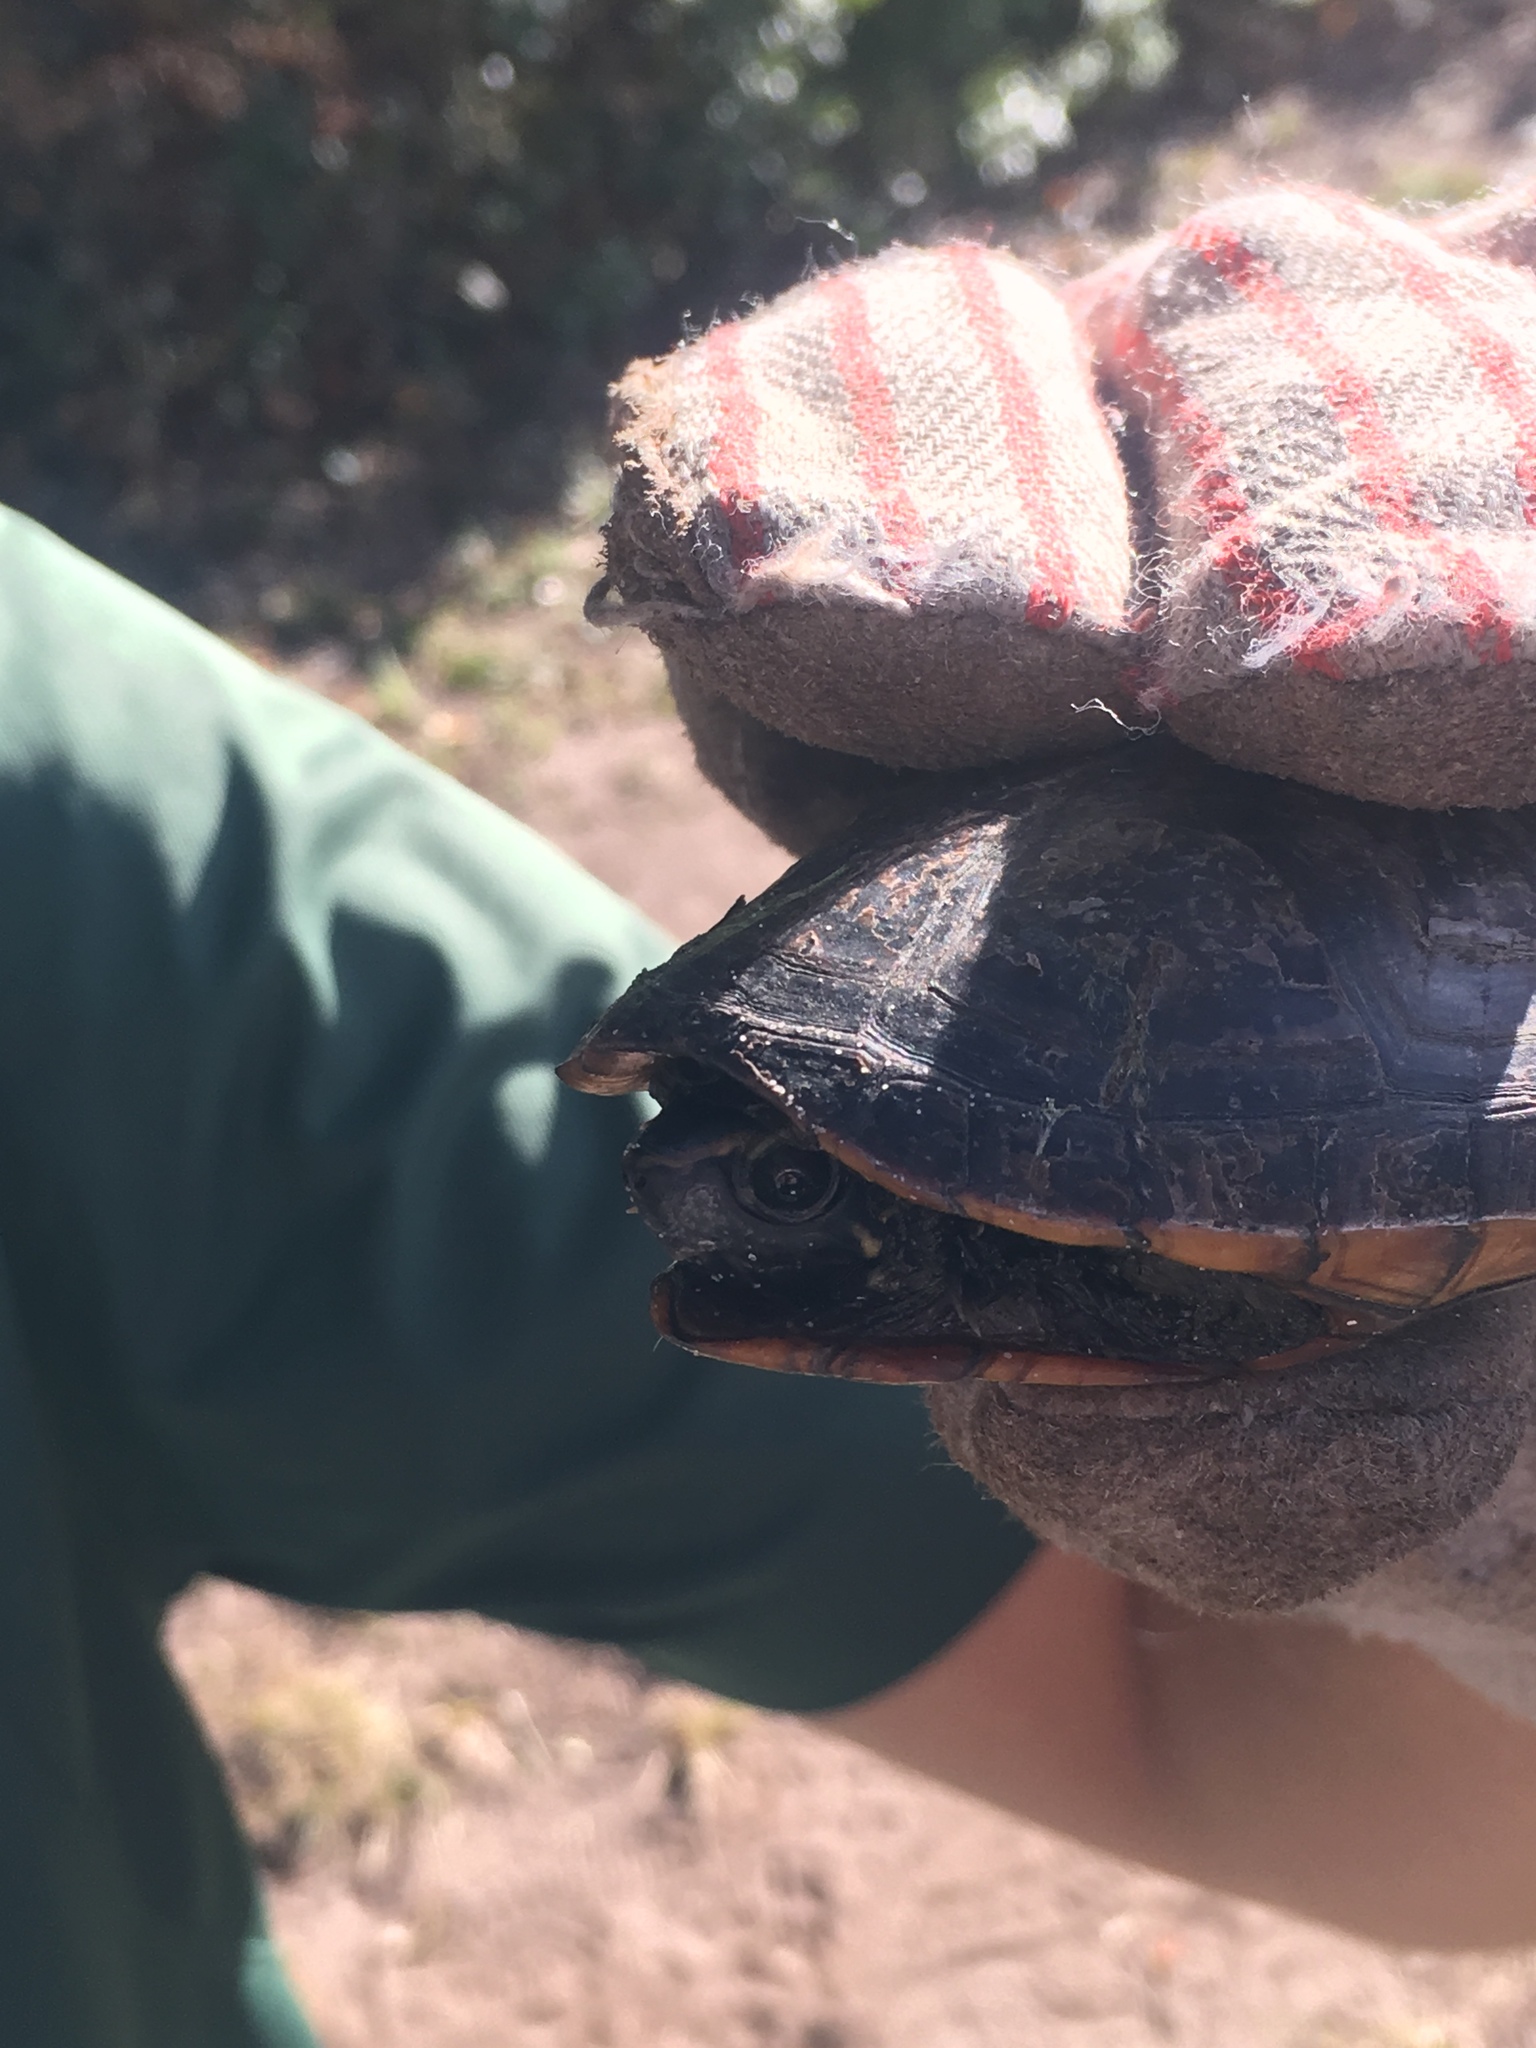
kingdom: Animalia
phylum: Chordata
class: Testudines
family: Kinosternidae
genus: Kinosternon
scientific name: Kinosternon baurii
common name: Striped mud turtle
